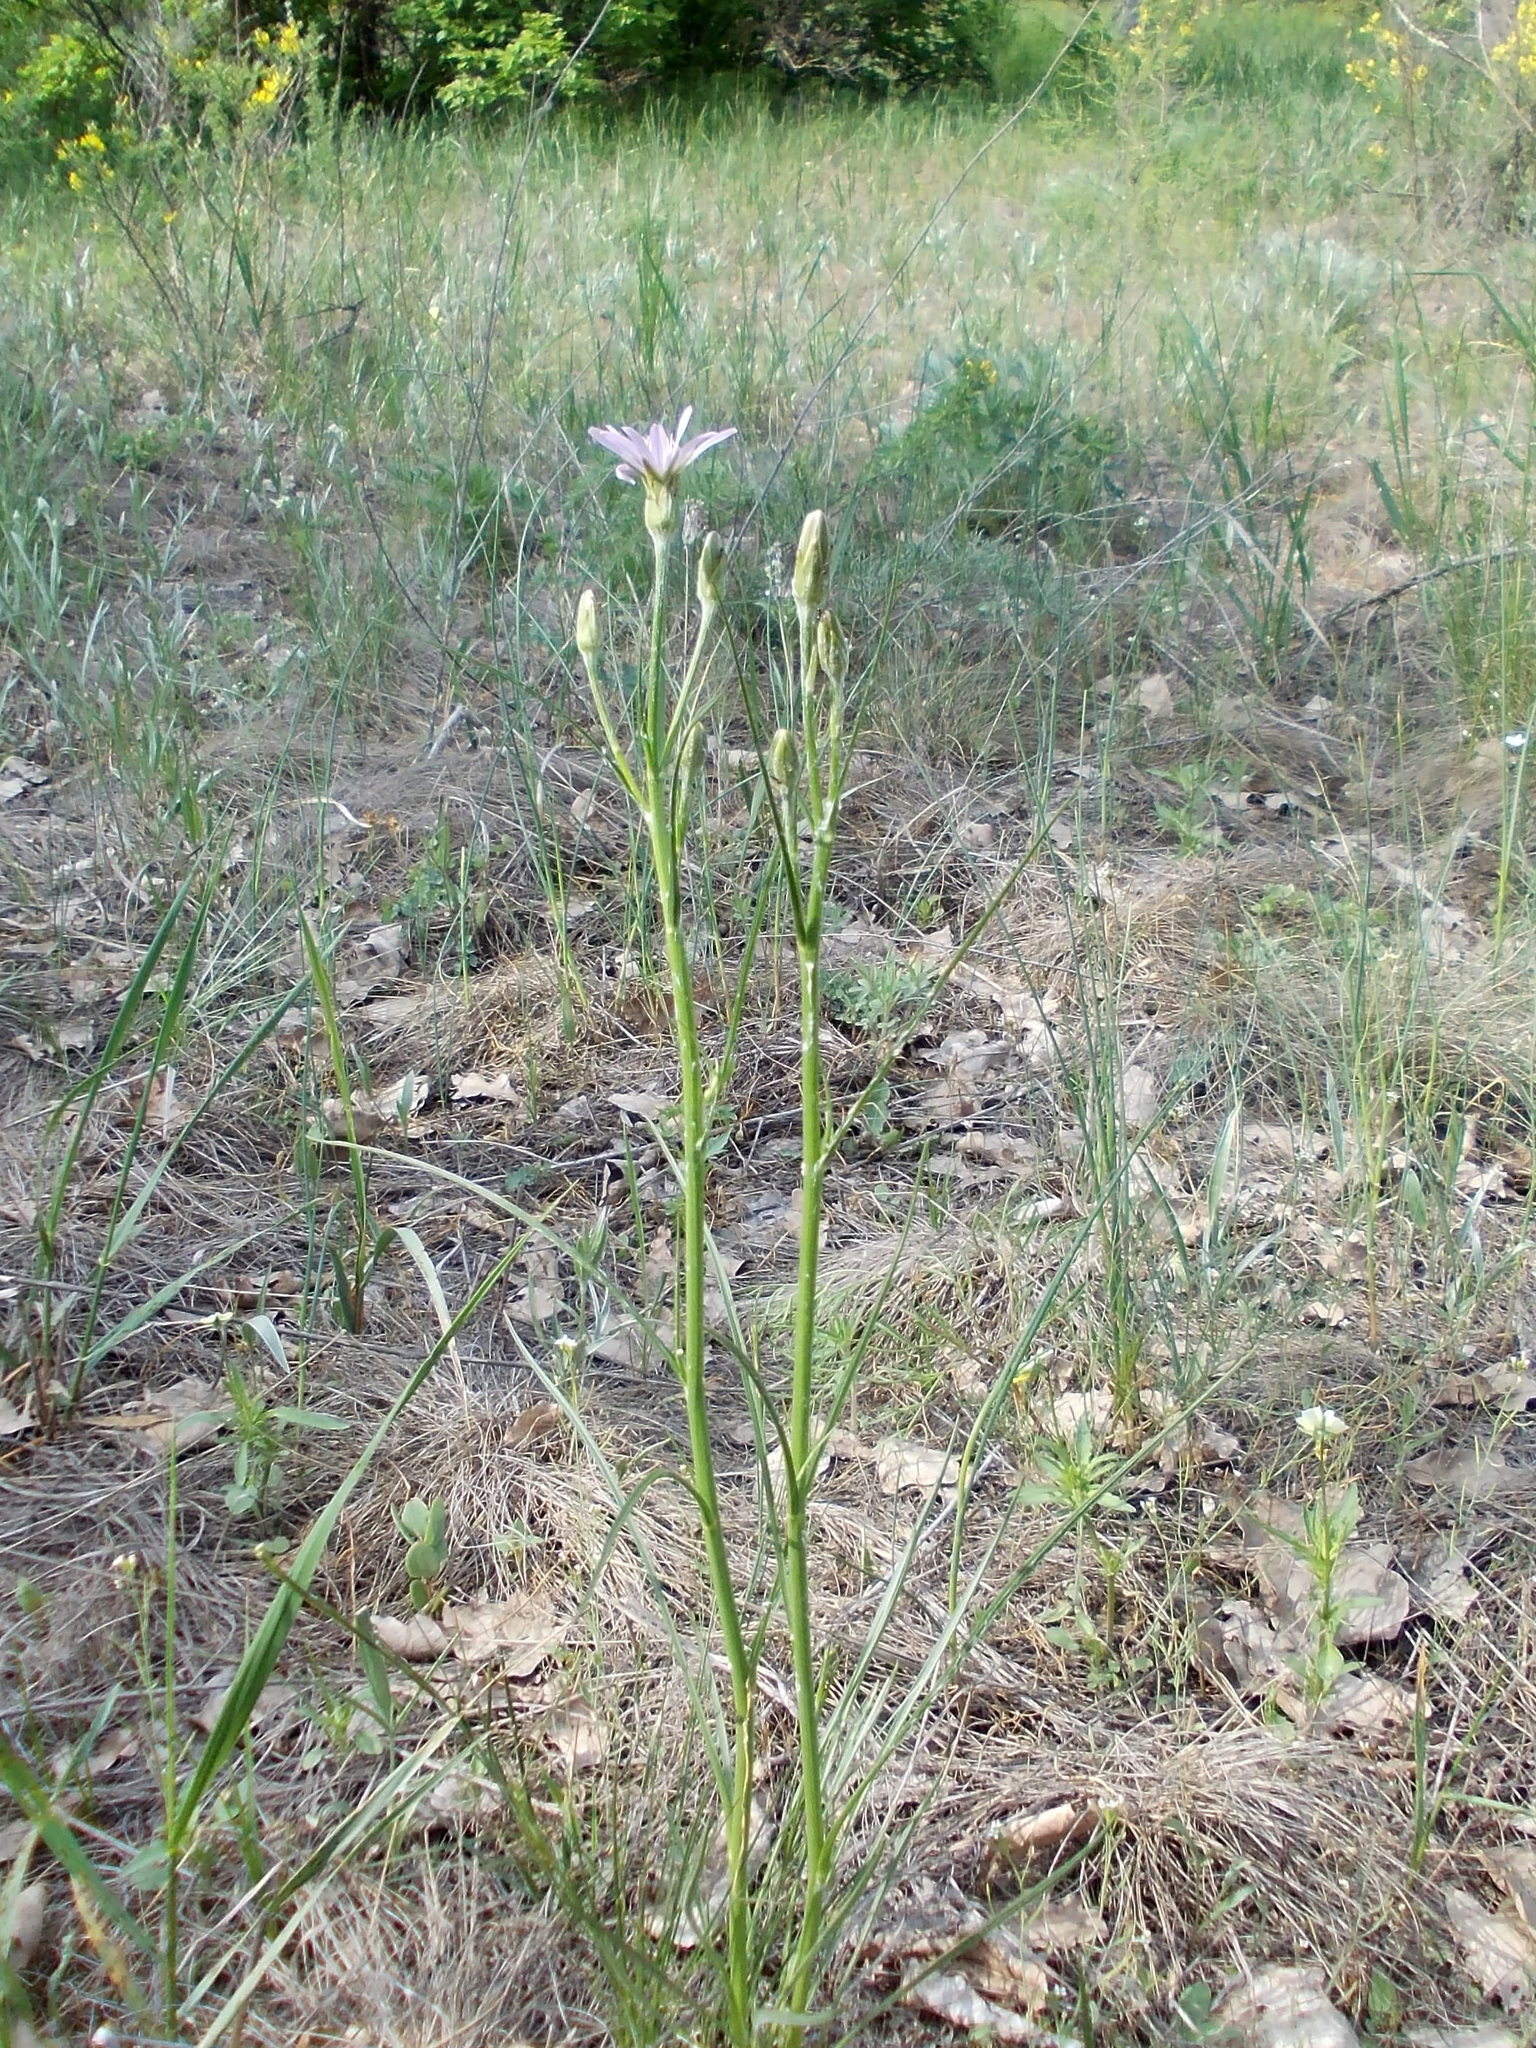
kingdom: Plantae
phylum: Tracheophyta
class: Magnoliopsida
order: Asterales
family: Asteraceae
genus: Scorzonera
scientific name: Scorzonera purpurea
